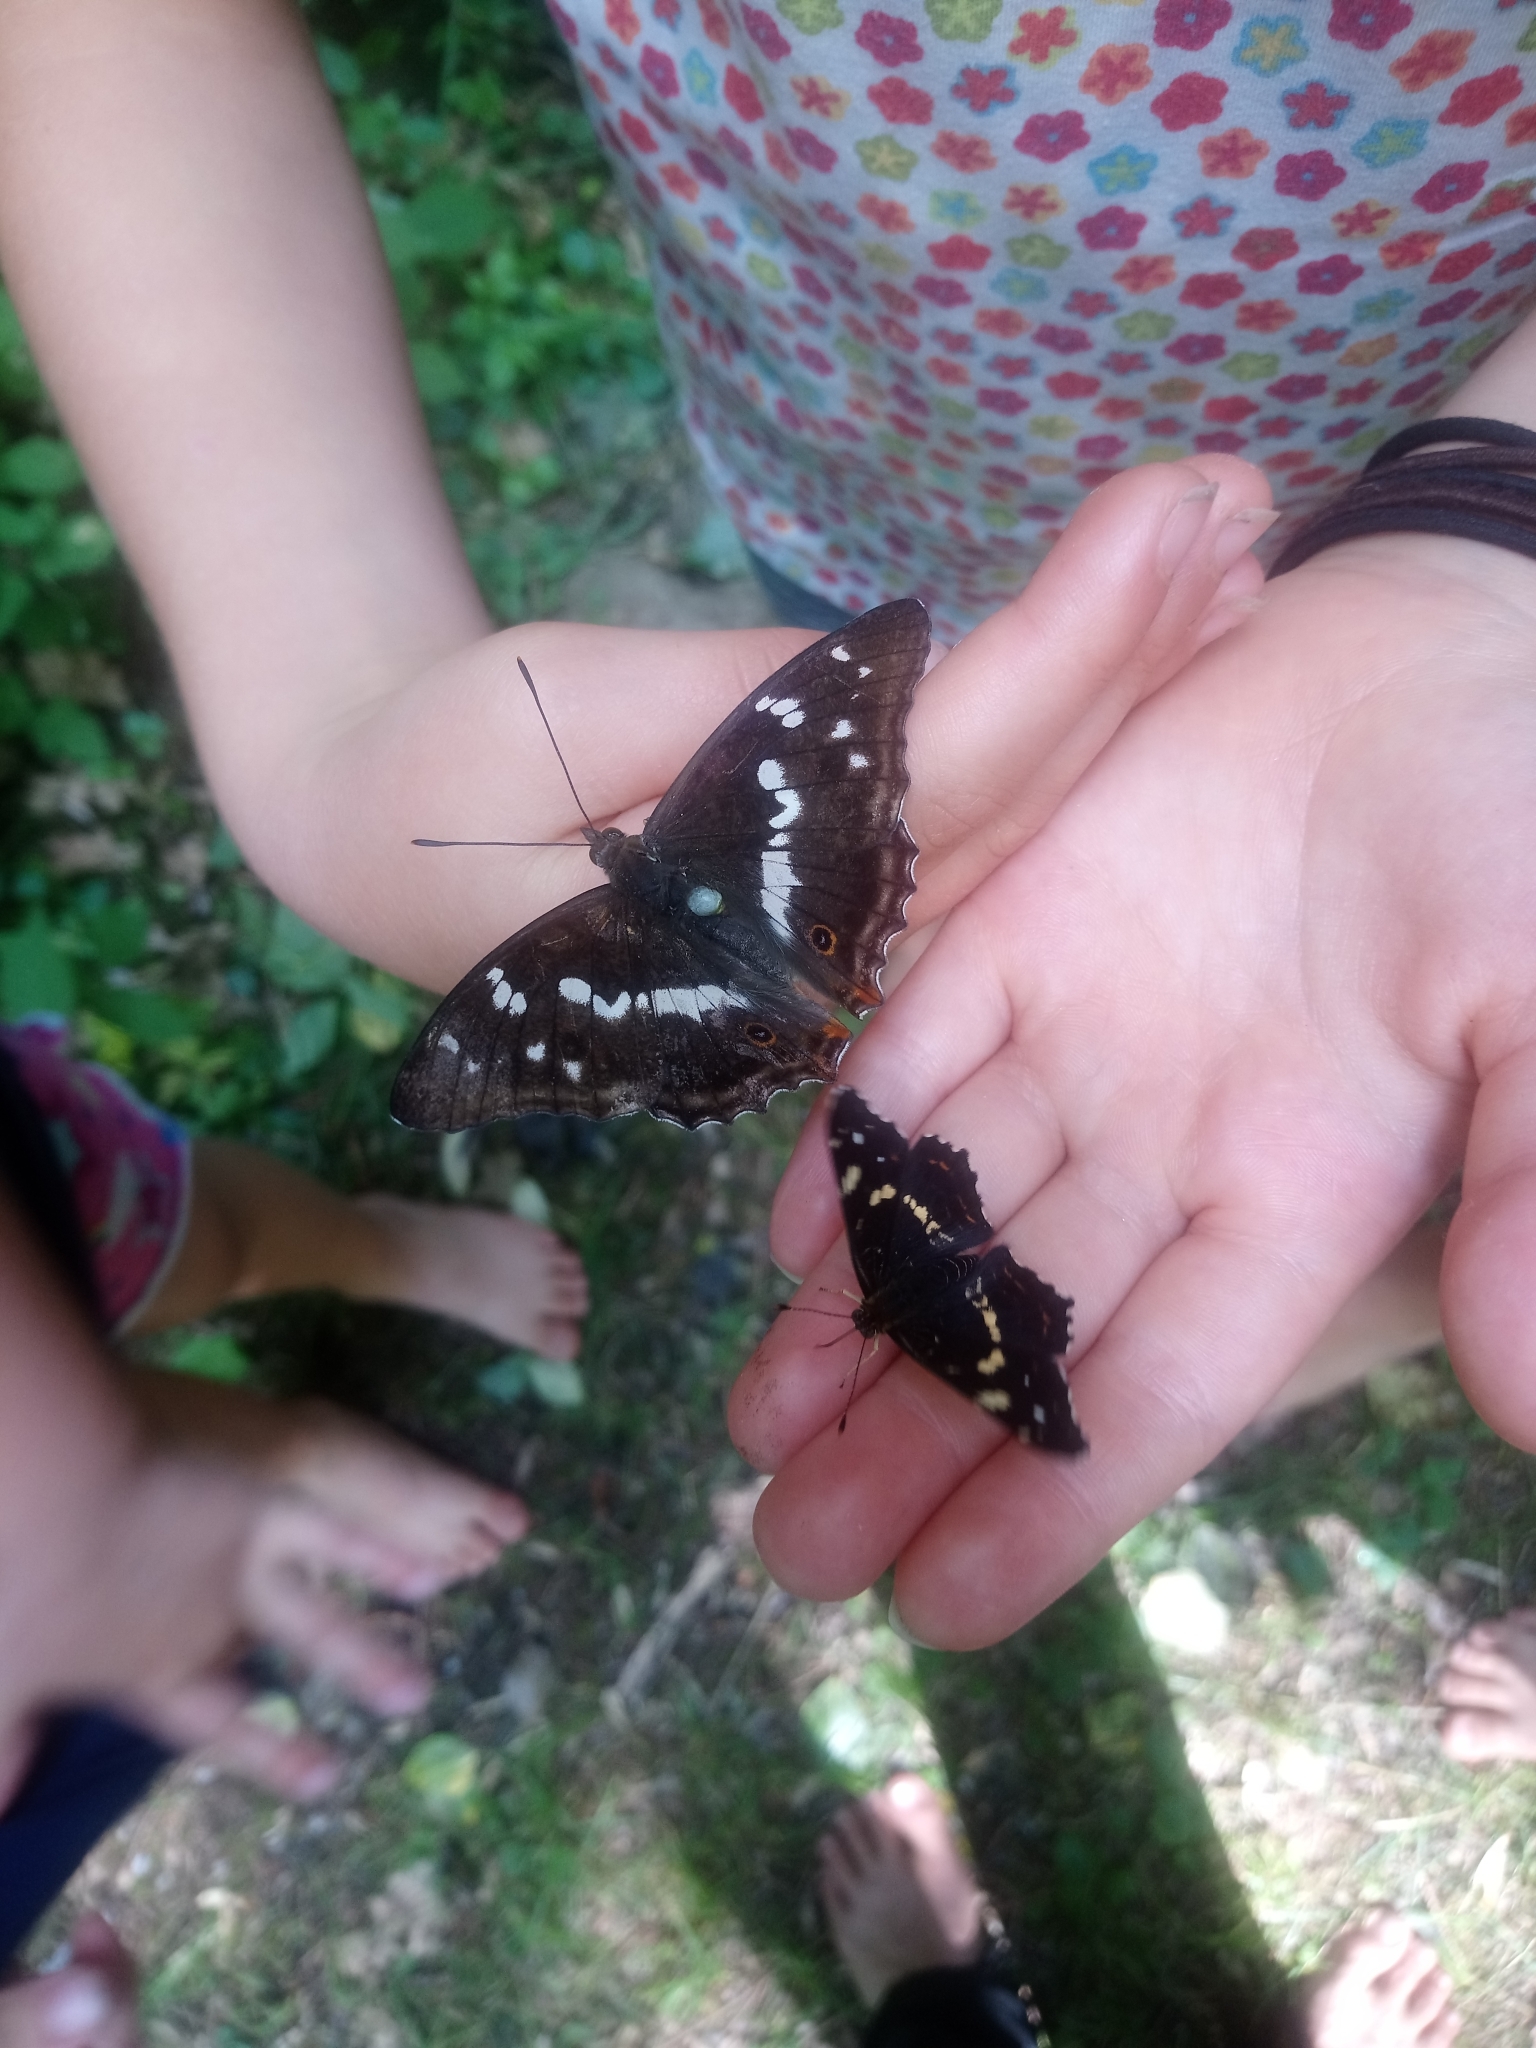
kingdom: Animalia
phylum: Arthropoda
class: Insecta
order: Lepidoptera
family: Nymphalidae
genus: Araschnia
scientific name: Araschnia levana
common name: Map butterfly
